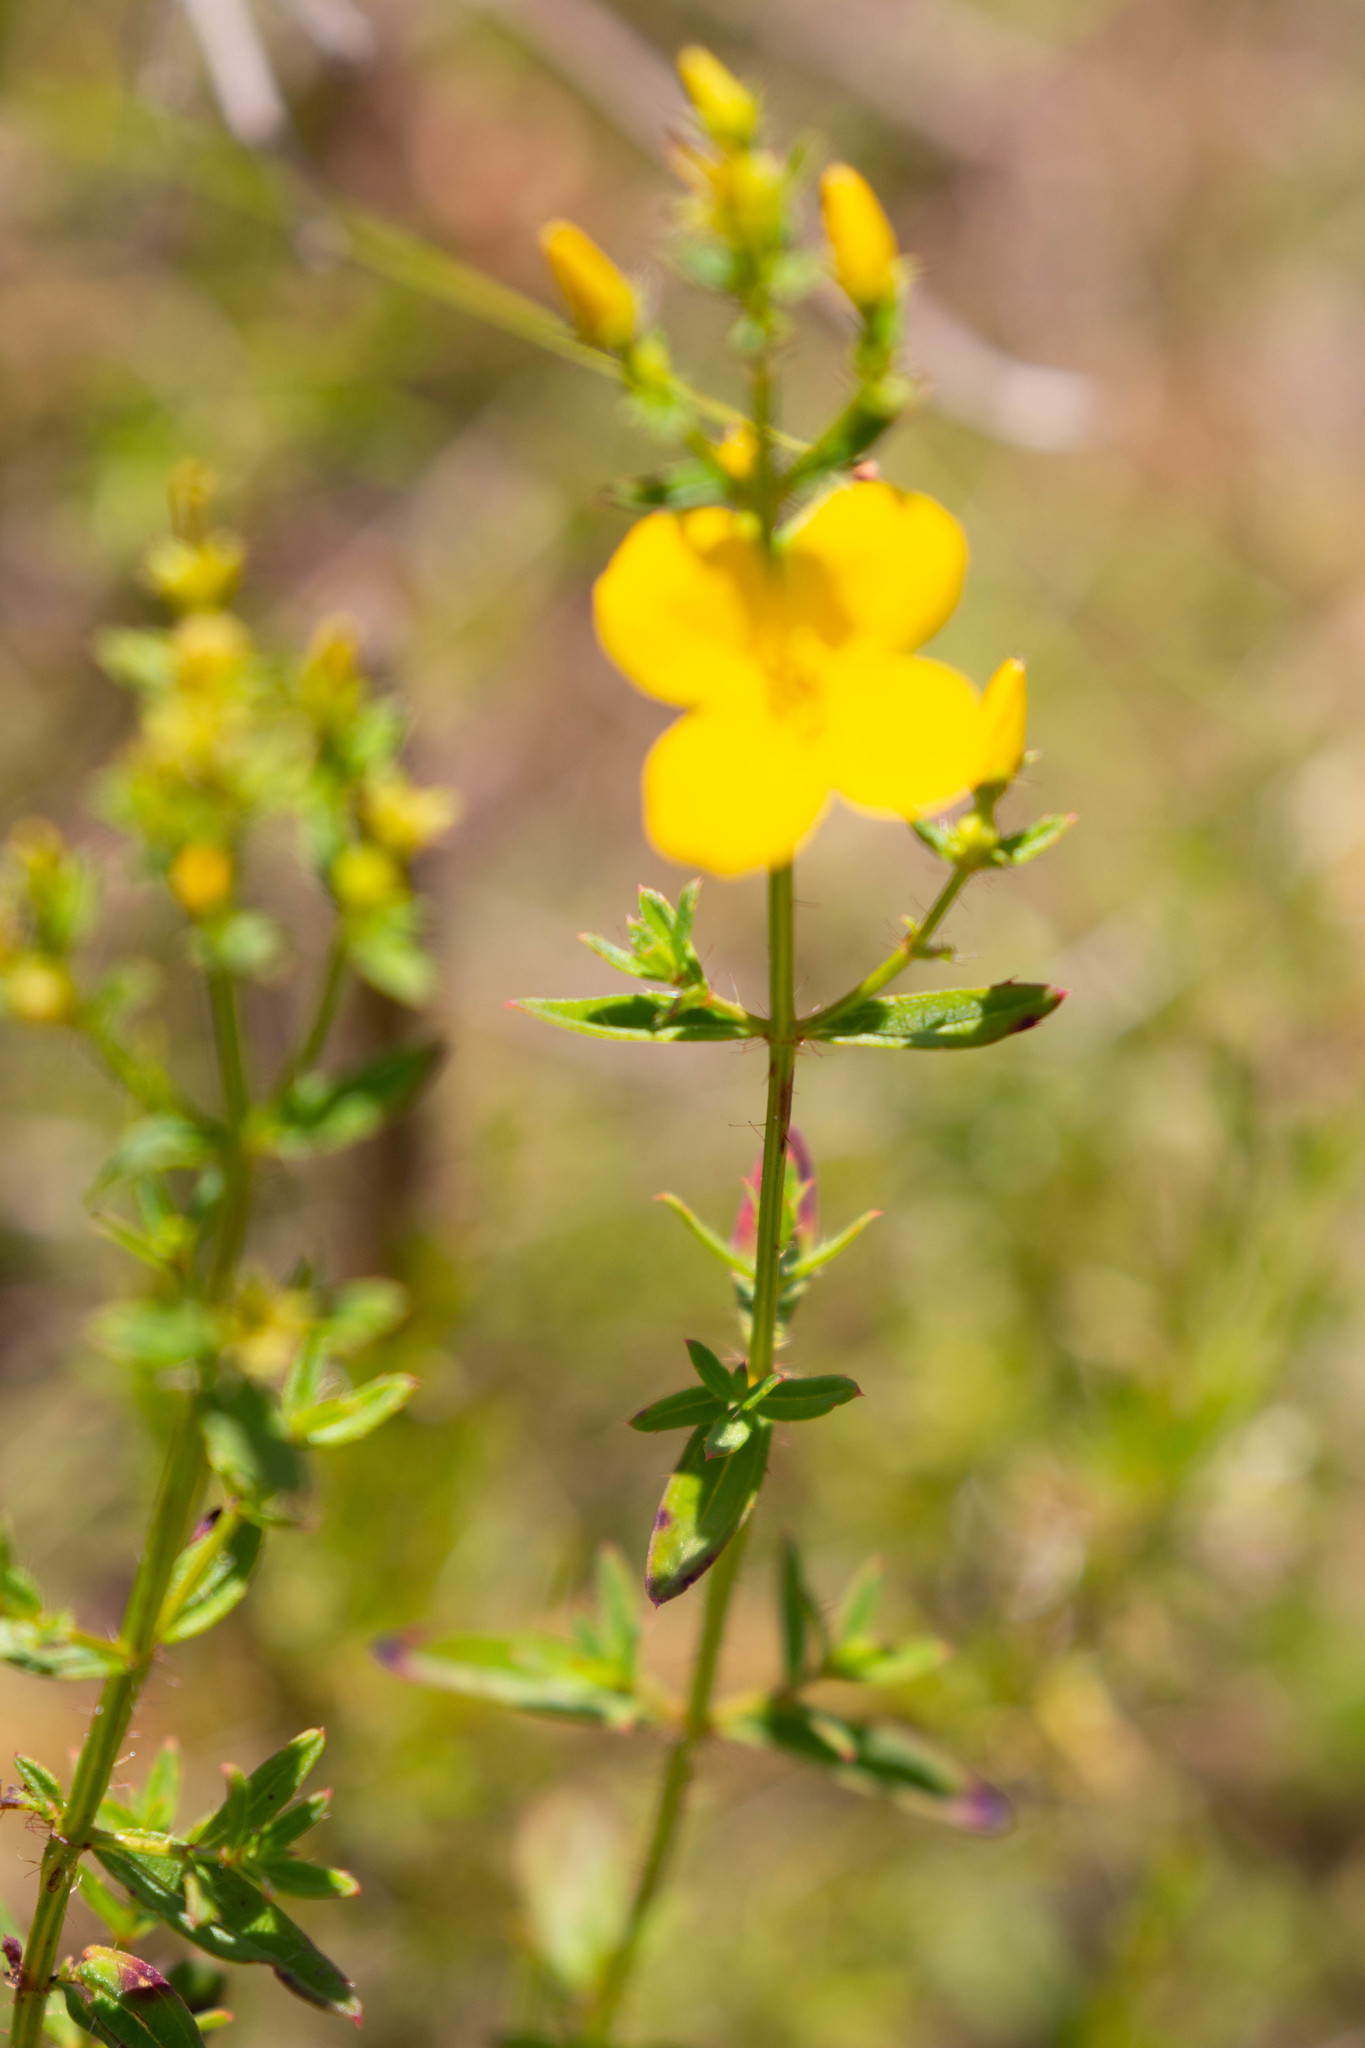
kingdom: Plantae
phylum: Tracheophyta
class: Magnoliopsida
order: Myrtales
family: Melastomataceae
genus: Rhexia
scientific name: Rhexia lutea
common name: Golden meadow-beauty
